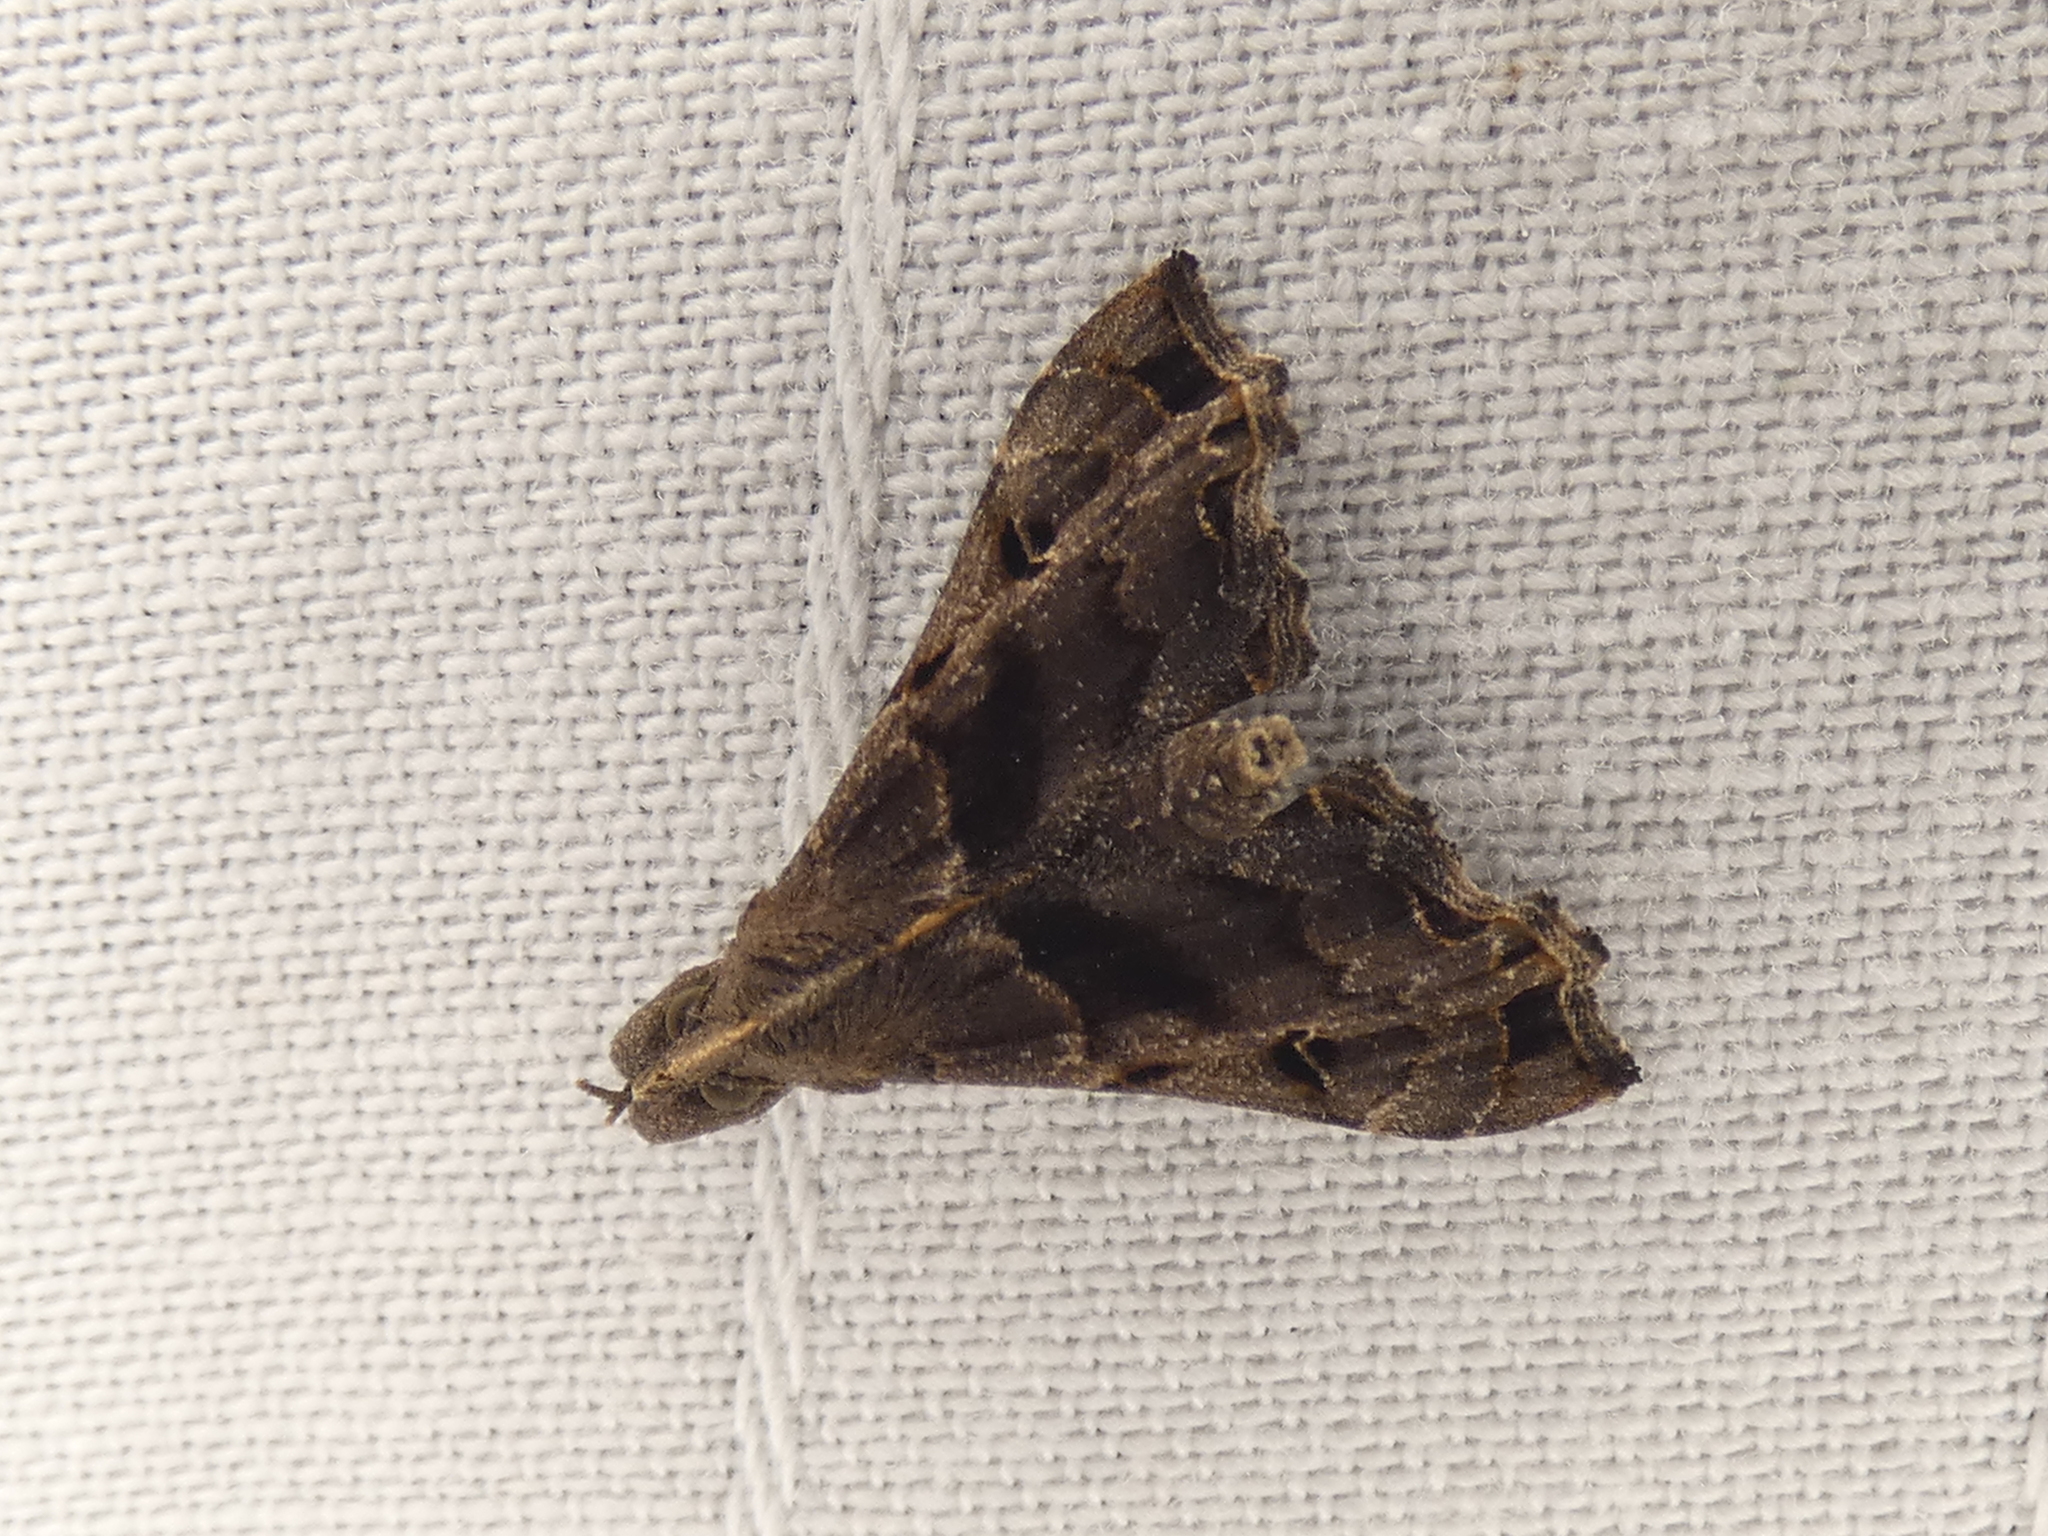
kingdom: Animalia
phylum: Arthropoda
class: Insecta
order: Lepidoptera
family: Erebidae
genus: Palthis
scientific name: Palthis asopialis
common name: Faint-spotted palthis moth
